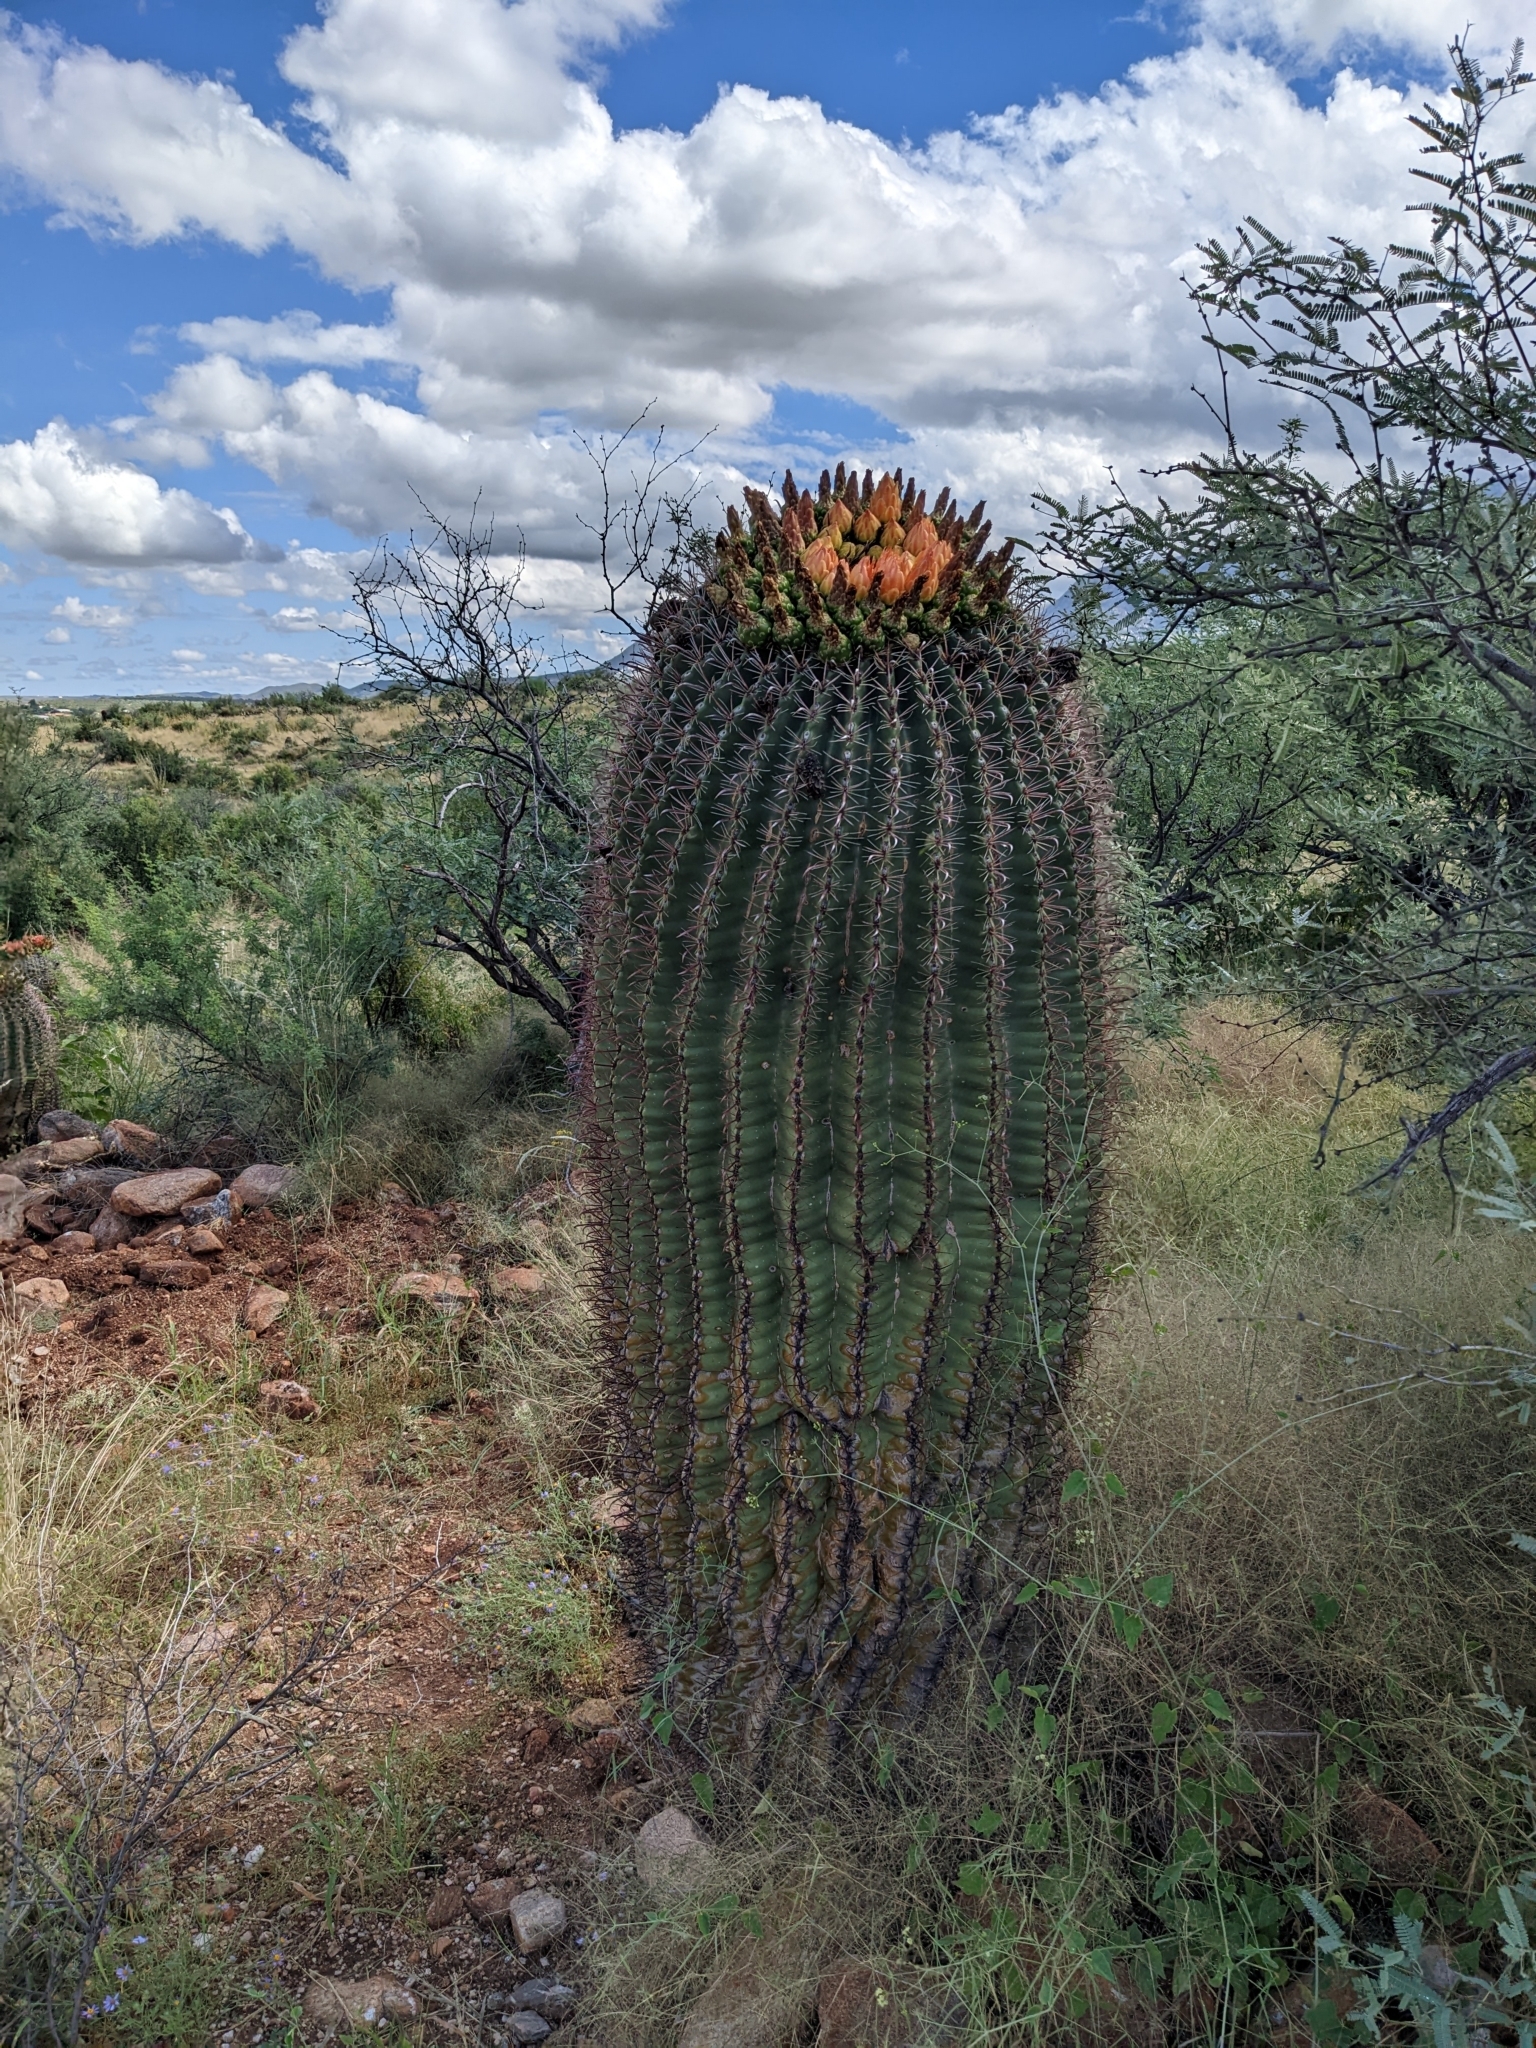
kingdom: Plantae
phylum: Tracheophyta
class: Magnoliopsida
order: Caryophyllales
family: Cactaceae
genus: Ferocactus
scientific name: Ferocactus wislizeni
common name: Candy barrel cactus
